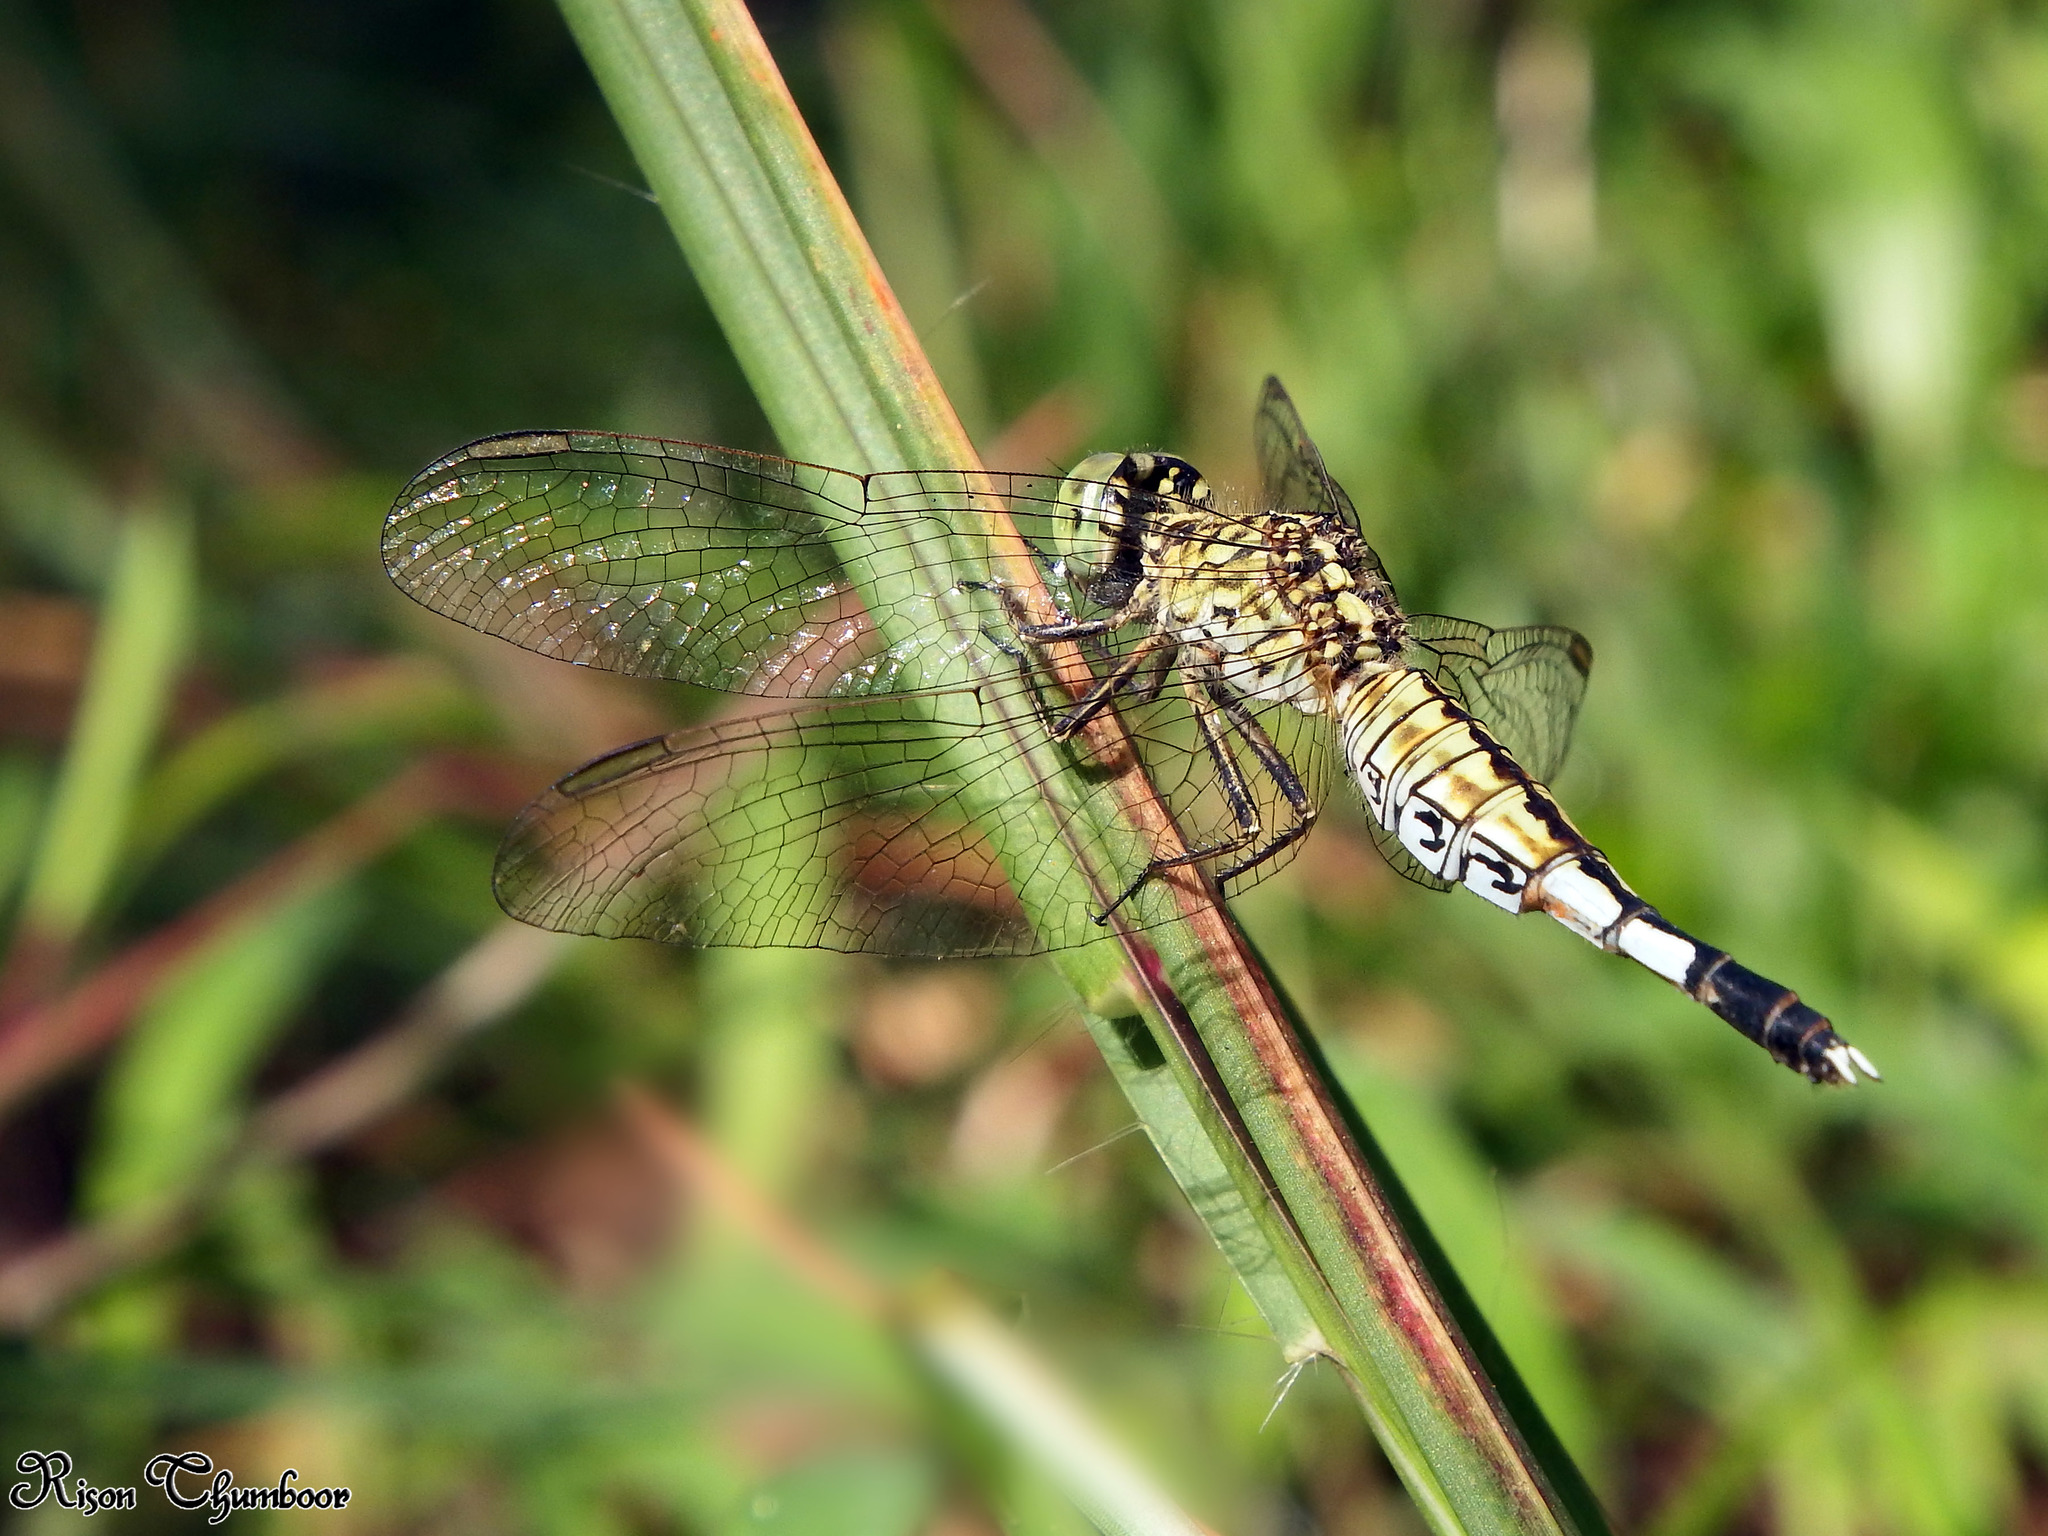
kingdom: Animalia
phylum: Arthropoda
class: Insecta
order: Odonata
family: Libellulidae
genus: Acisoma
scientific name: Acisoma panorpoides
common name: Asian pintail
